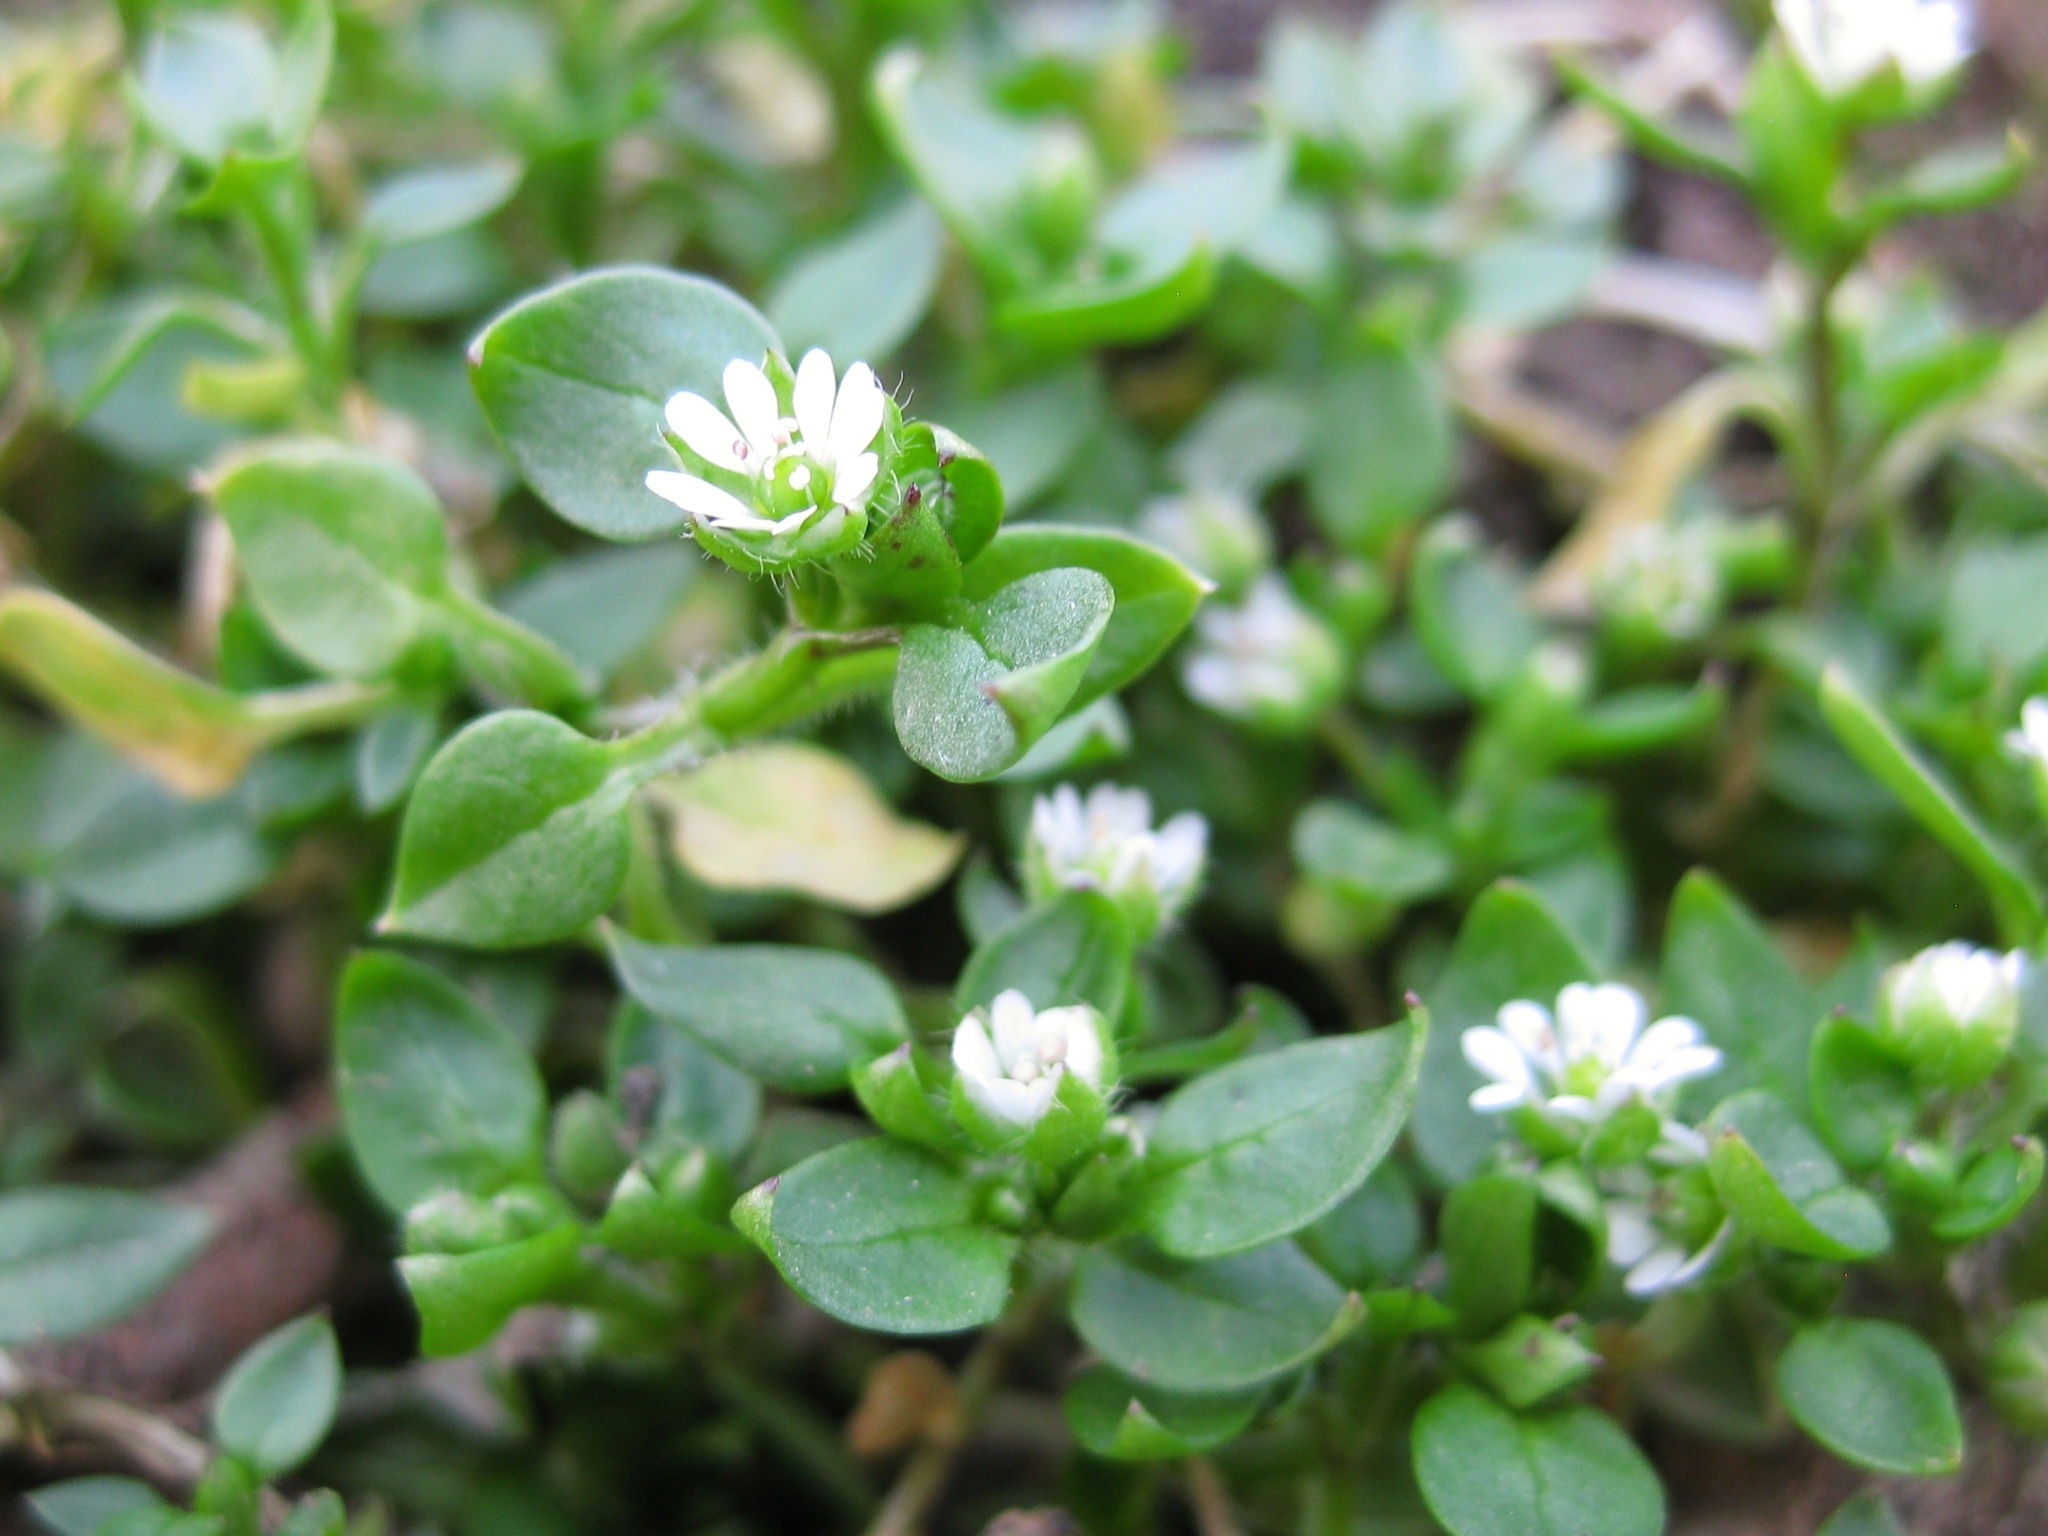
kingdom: Plantae
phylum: Tracheophyta
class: Magnoliopsida
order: Caryophyllales
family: Caryophyllaceae
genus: Stellaria
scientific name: Stellaria media
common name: Common chickweed
